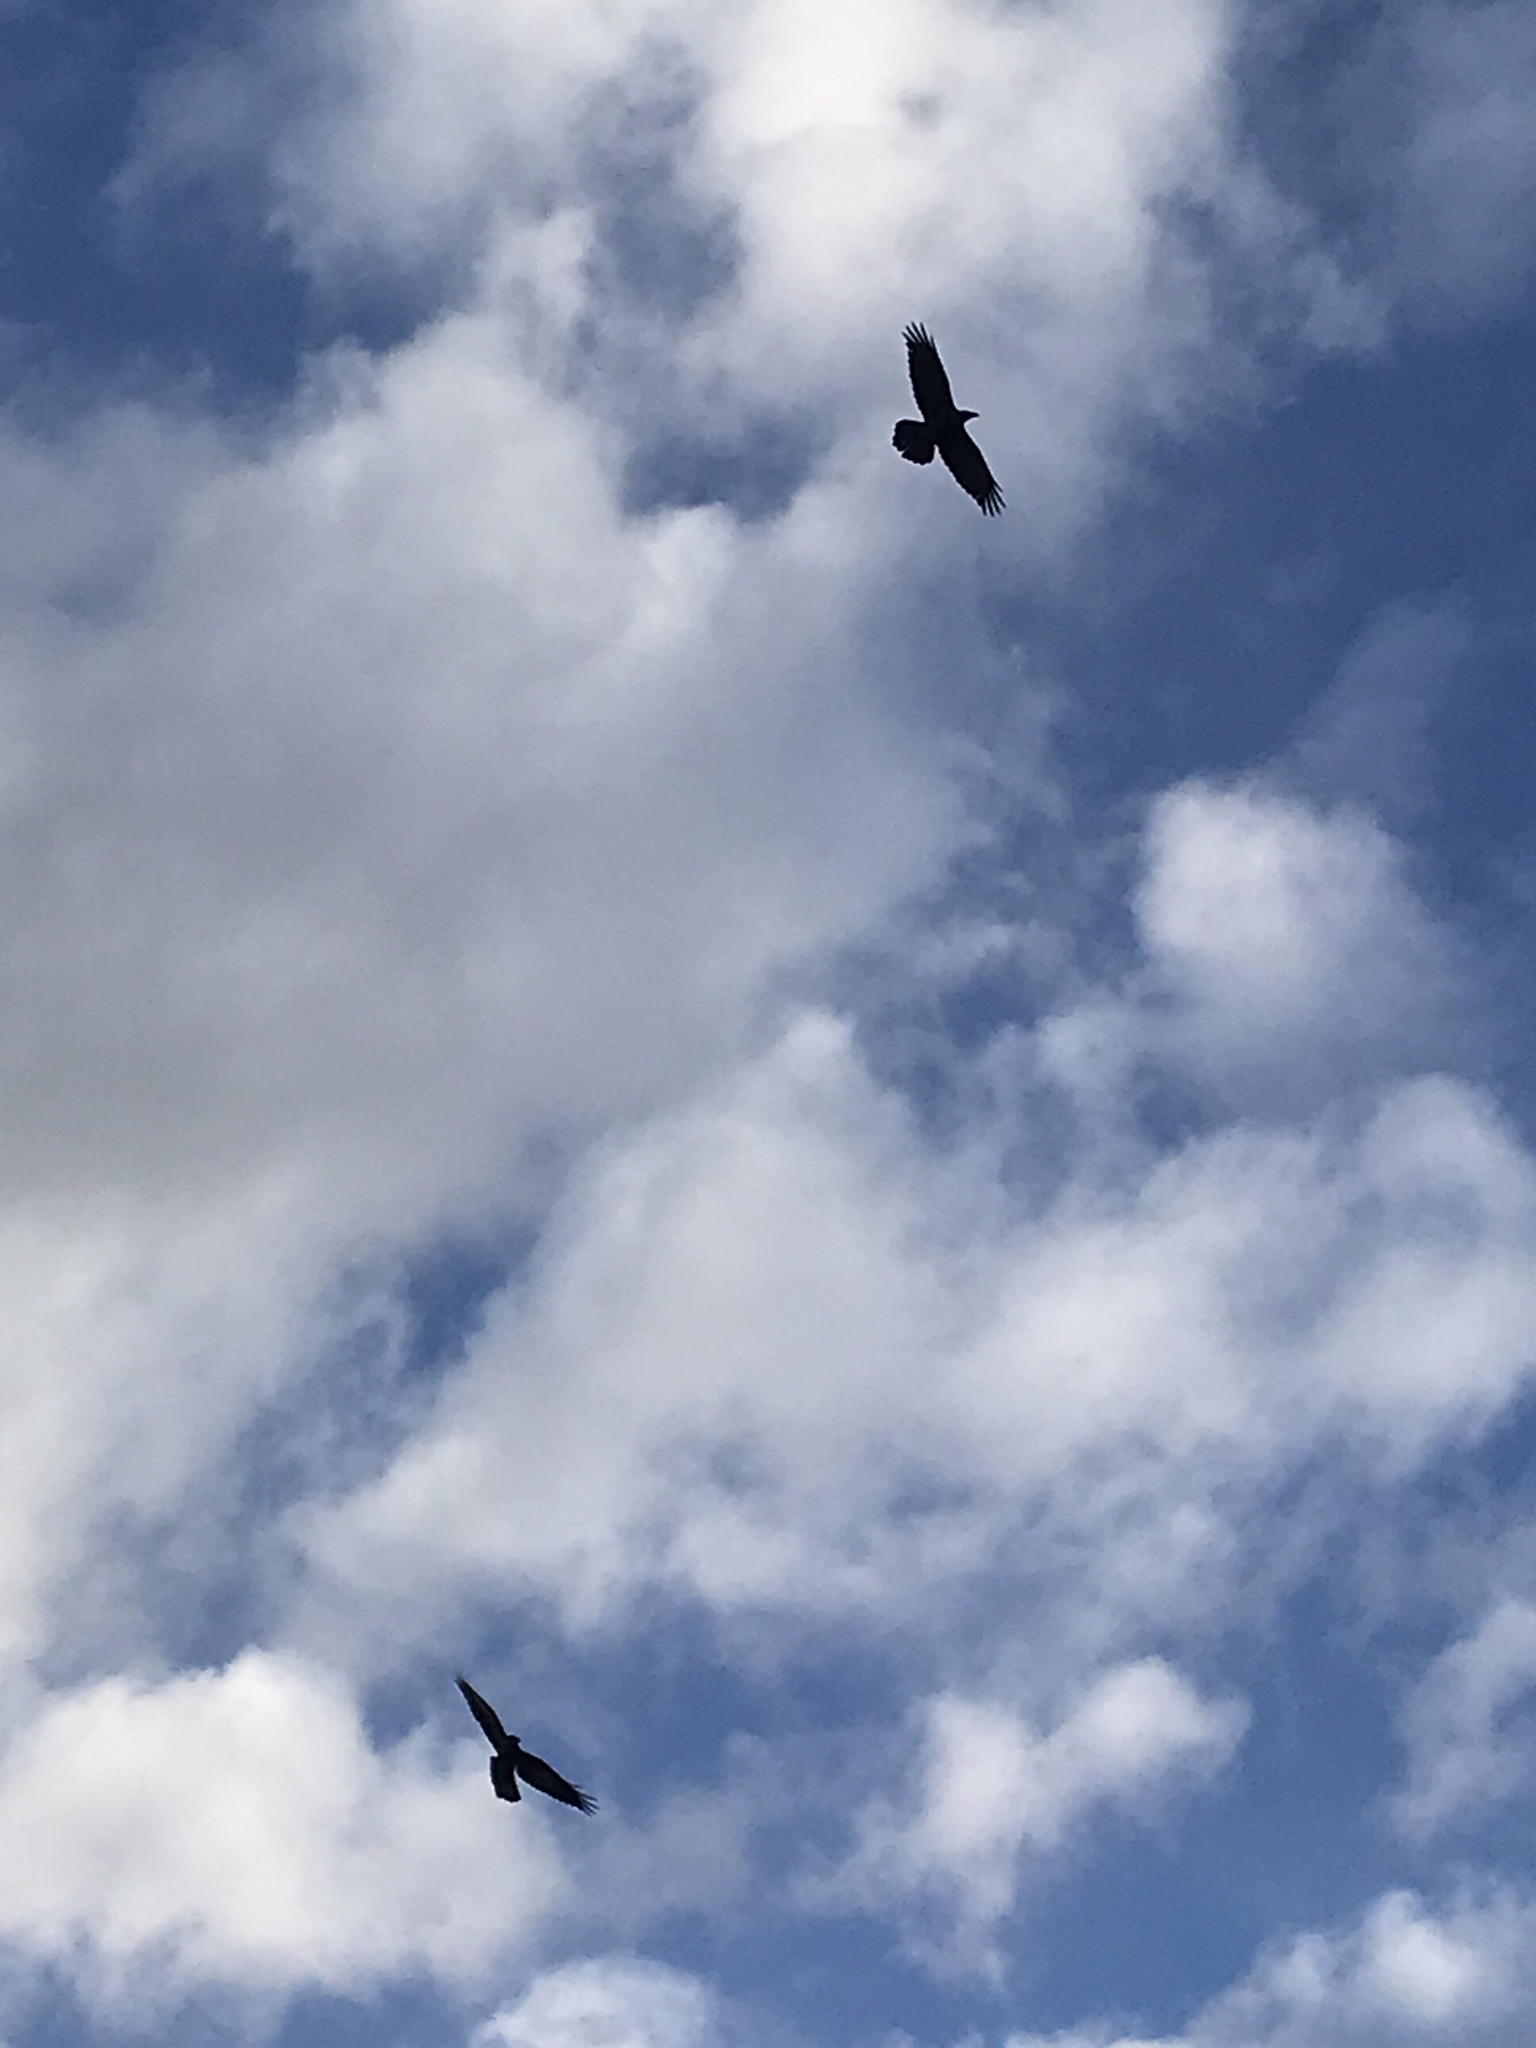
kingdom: Animalia
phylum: Chordata
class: Aves
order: Passeriformes
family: Corvidae
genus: Corvus
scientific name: Corvus corax
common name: Common raven
